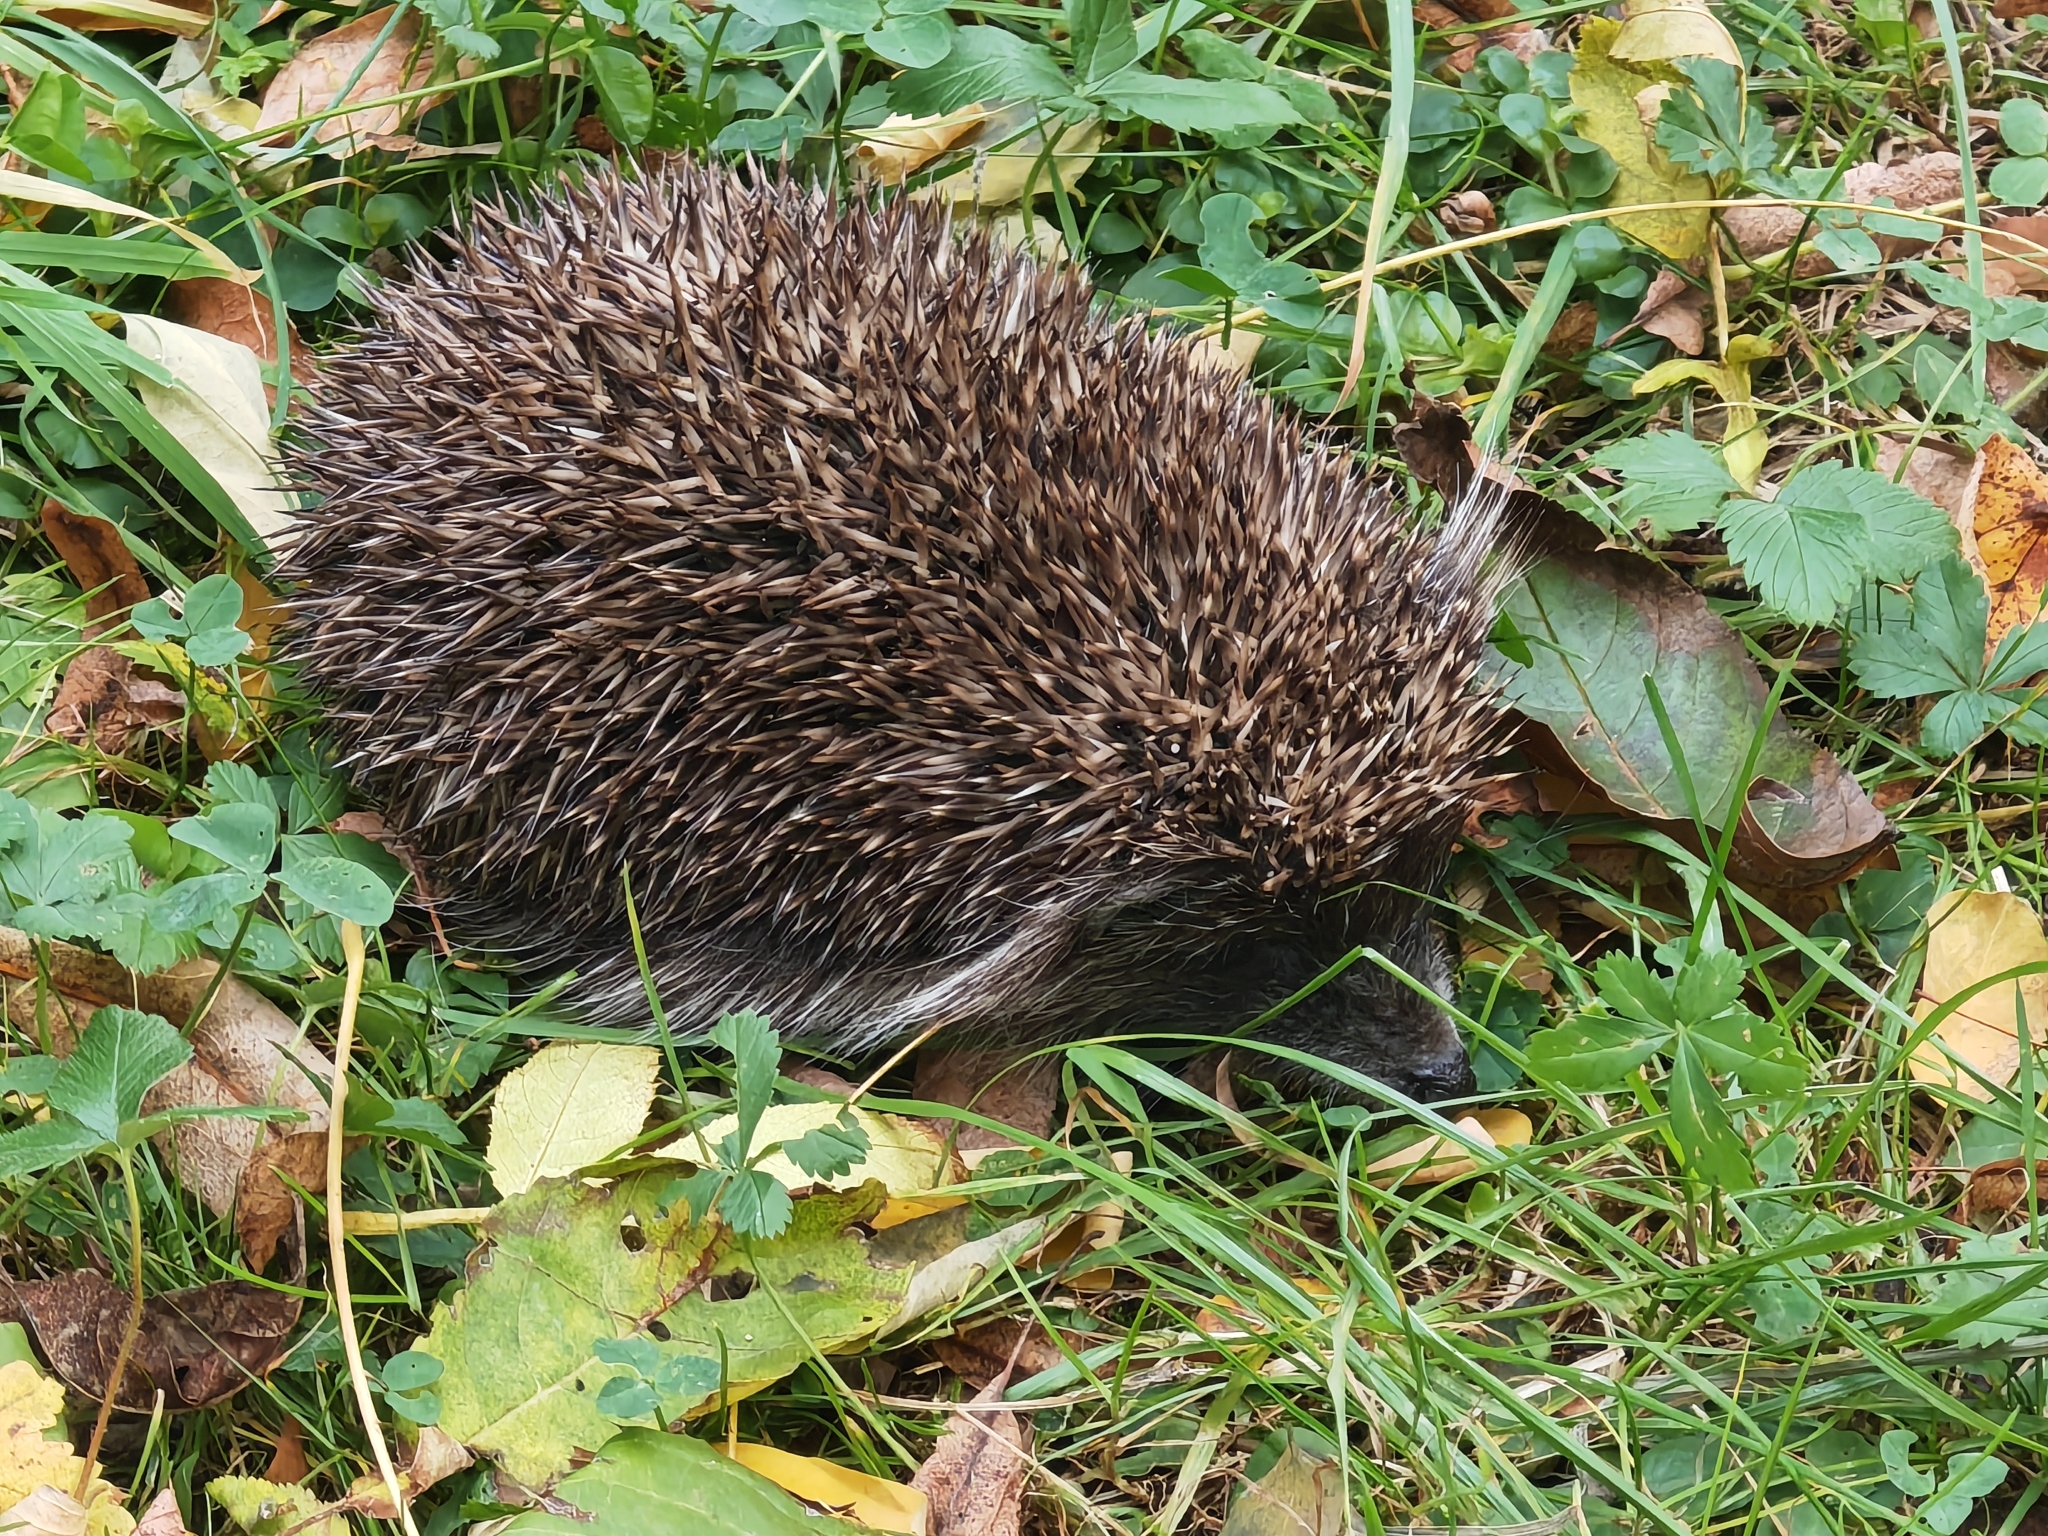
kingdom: Animalia
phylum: Chordata
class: Mammalia
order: Erinaceomorpha
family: Erinaceidae
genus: Erinaceus
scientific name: Erinaceus roumanicus
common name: Northern white-breasted hedgehog
